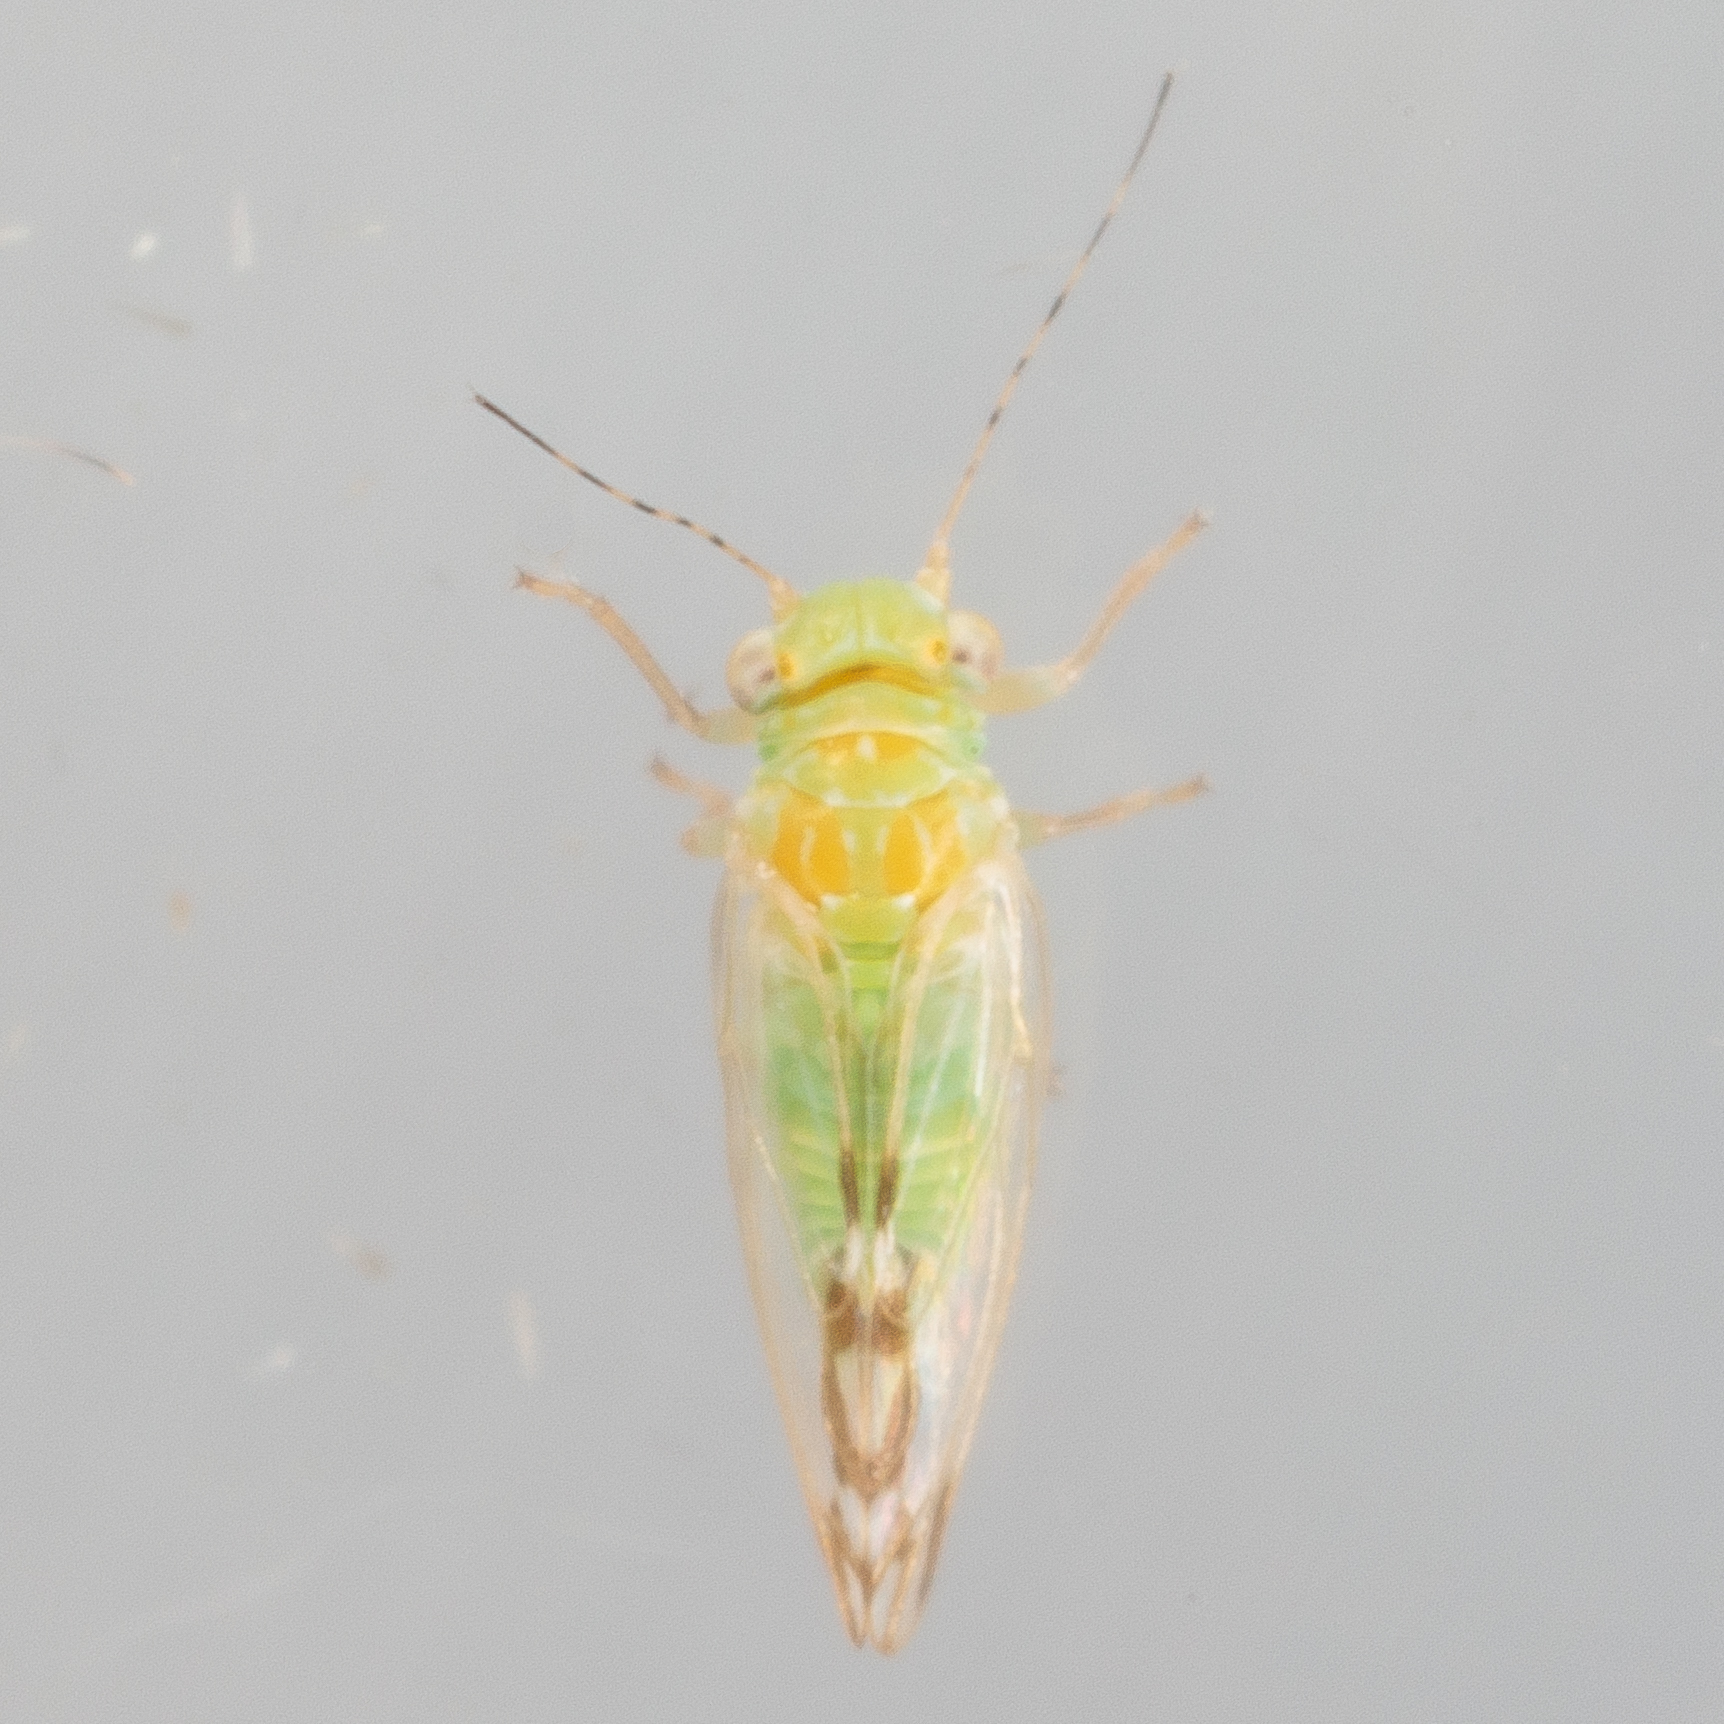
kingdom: Animalia
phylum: Arthropoda
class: Insecta
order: Hemiptera
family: Psyllidae
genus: Heteropsylla
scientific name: Heteropsylla texana
